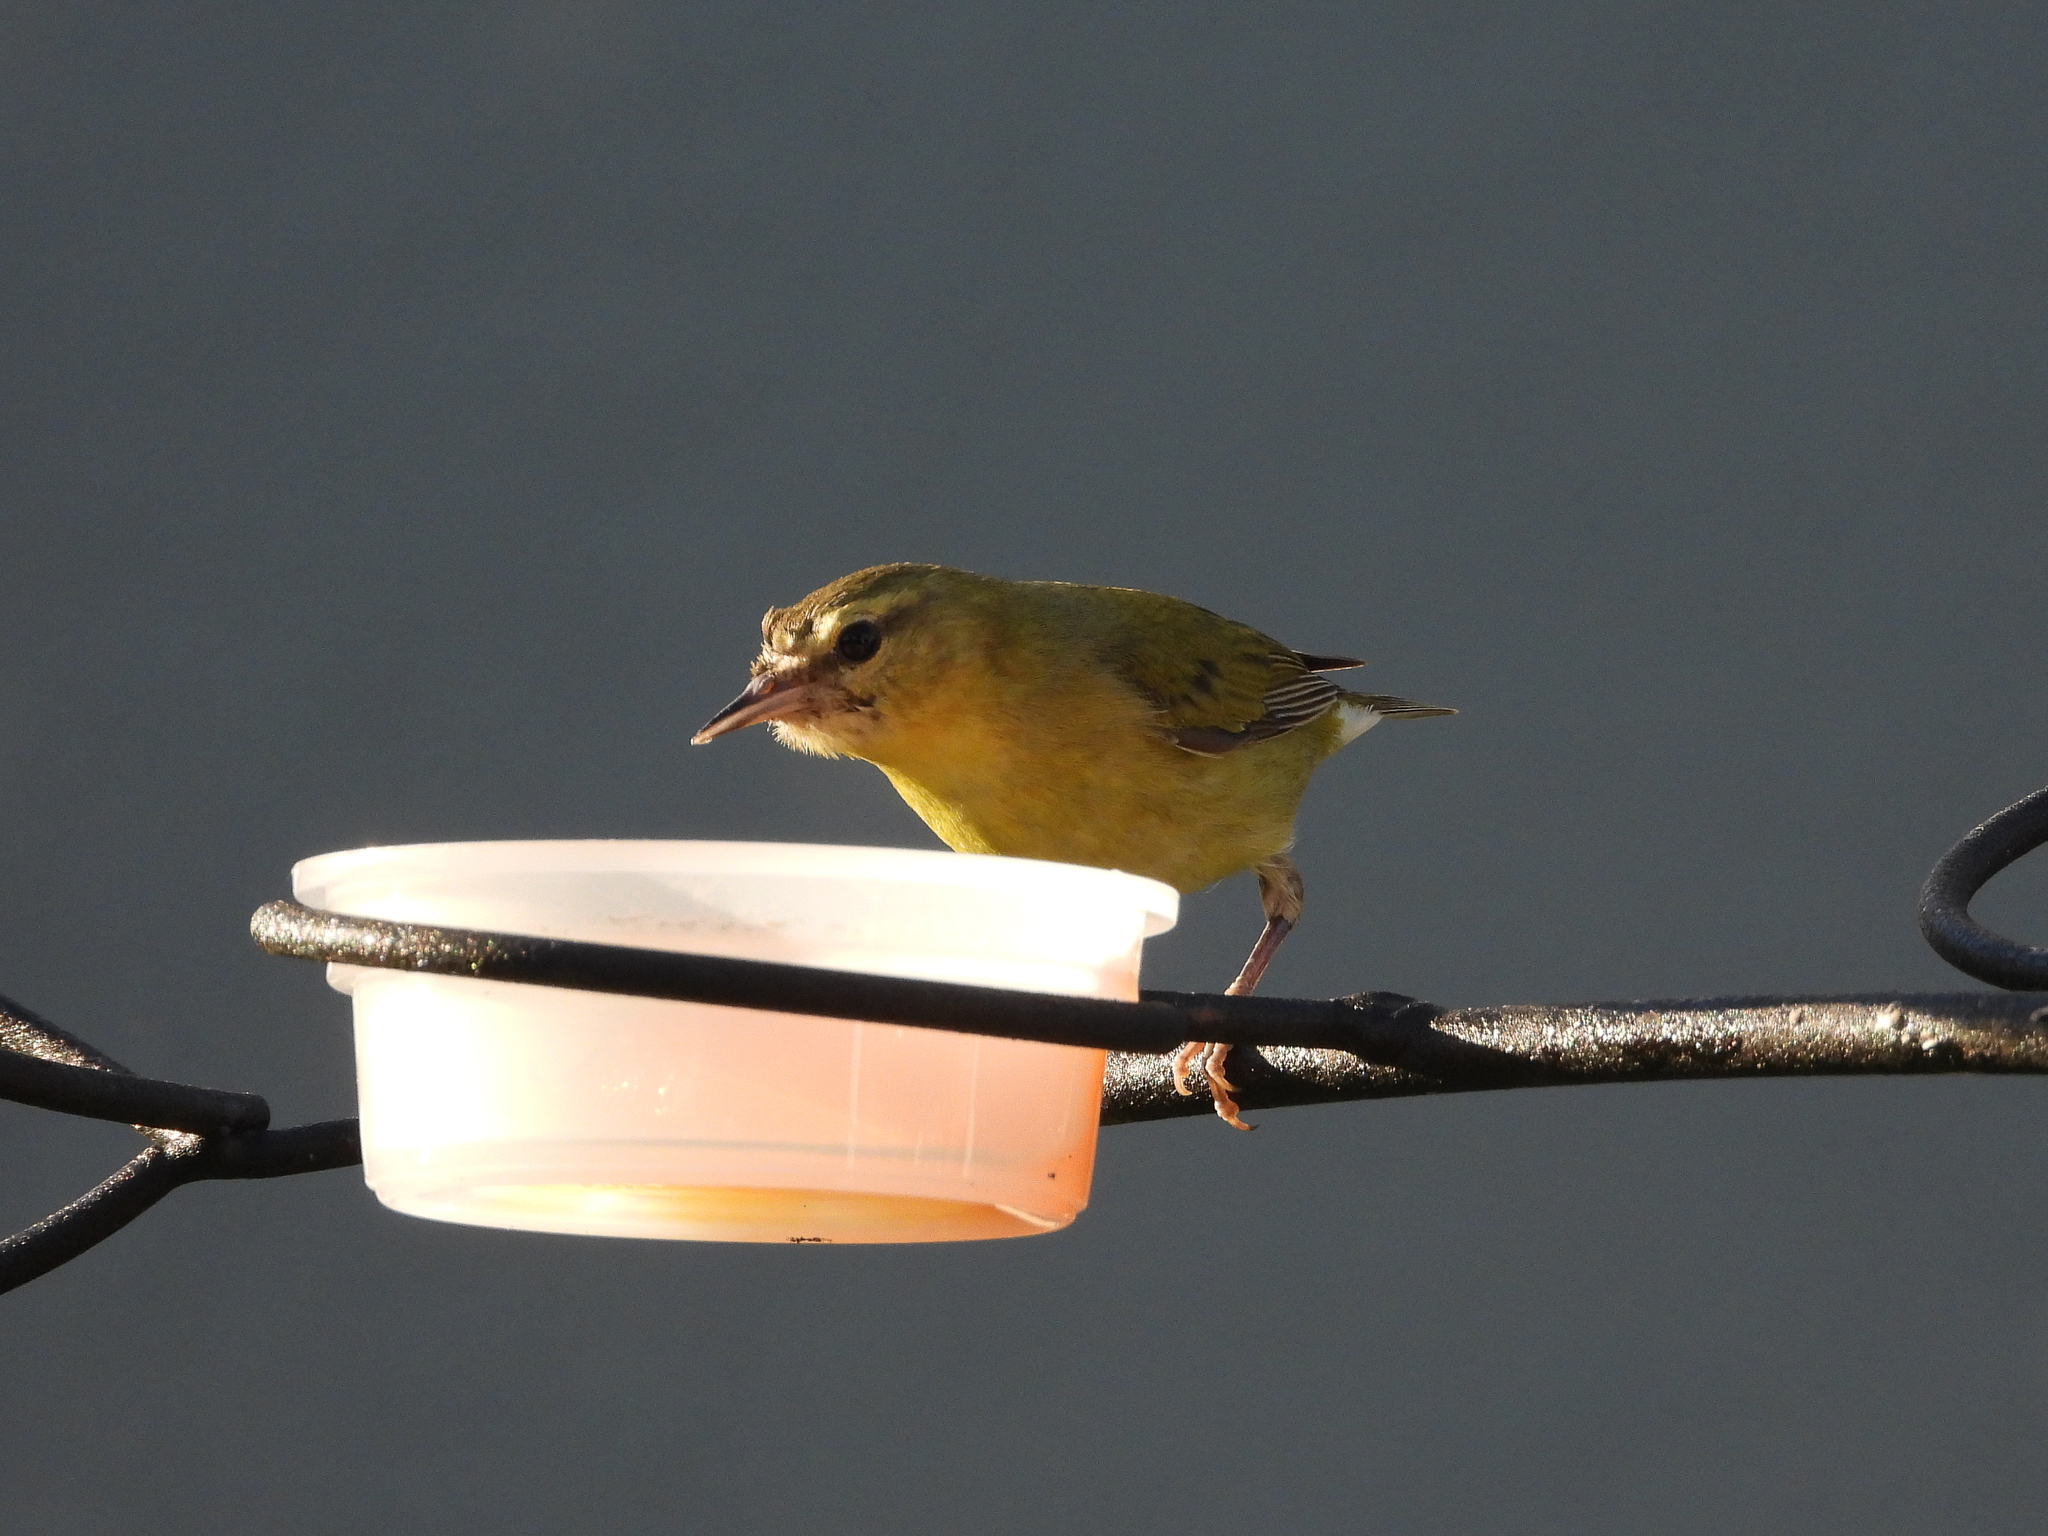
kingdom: Animalia
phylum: Chordata
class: Aves
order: Passeriformes
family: Parulidae
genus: Leiothlypis
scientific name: Leiothlypis peregrina
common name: Tennessee warbler
